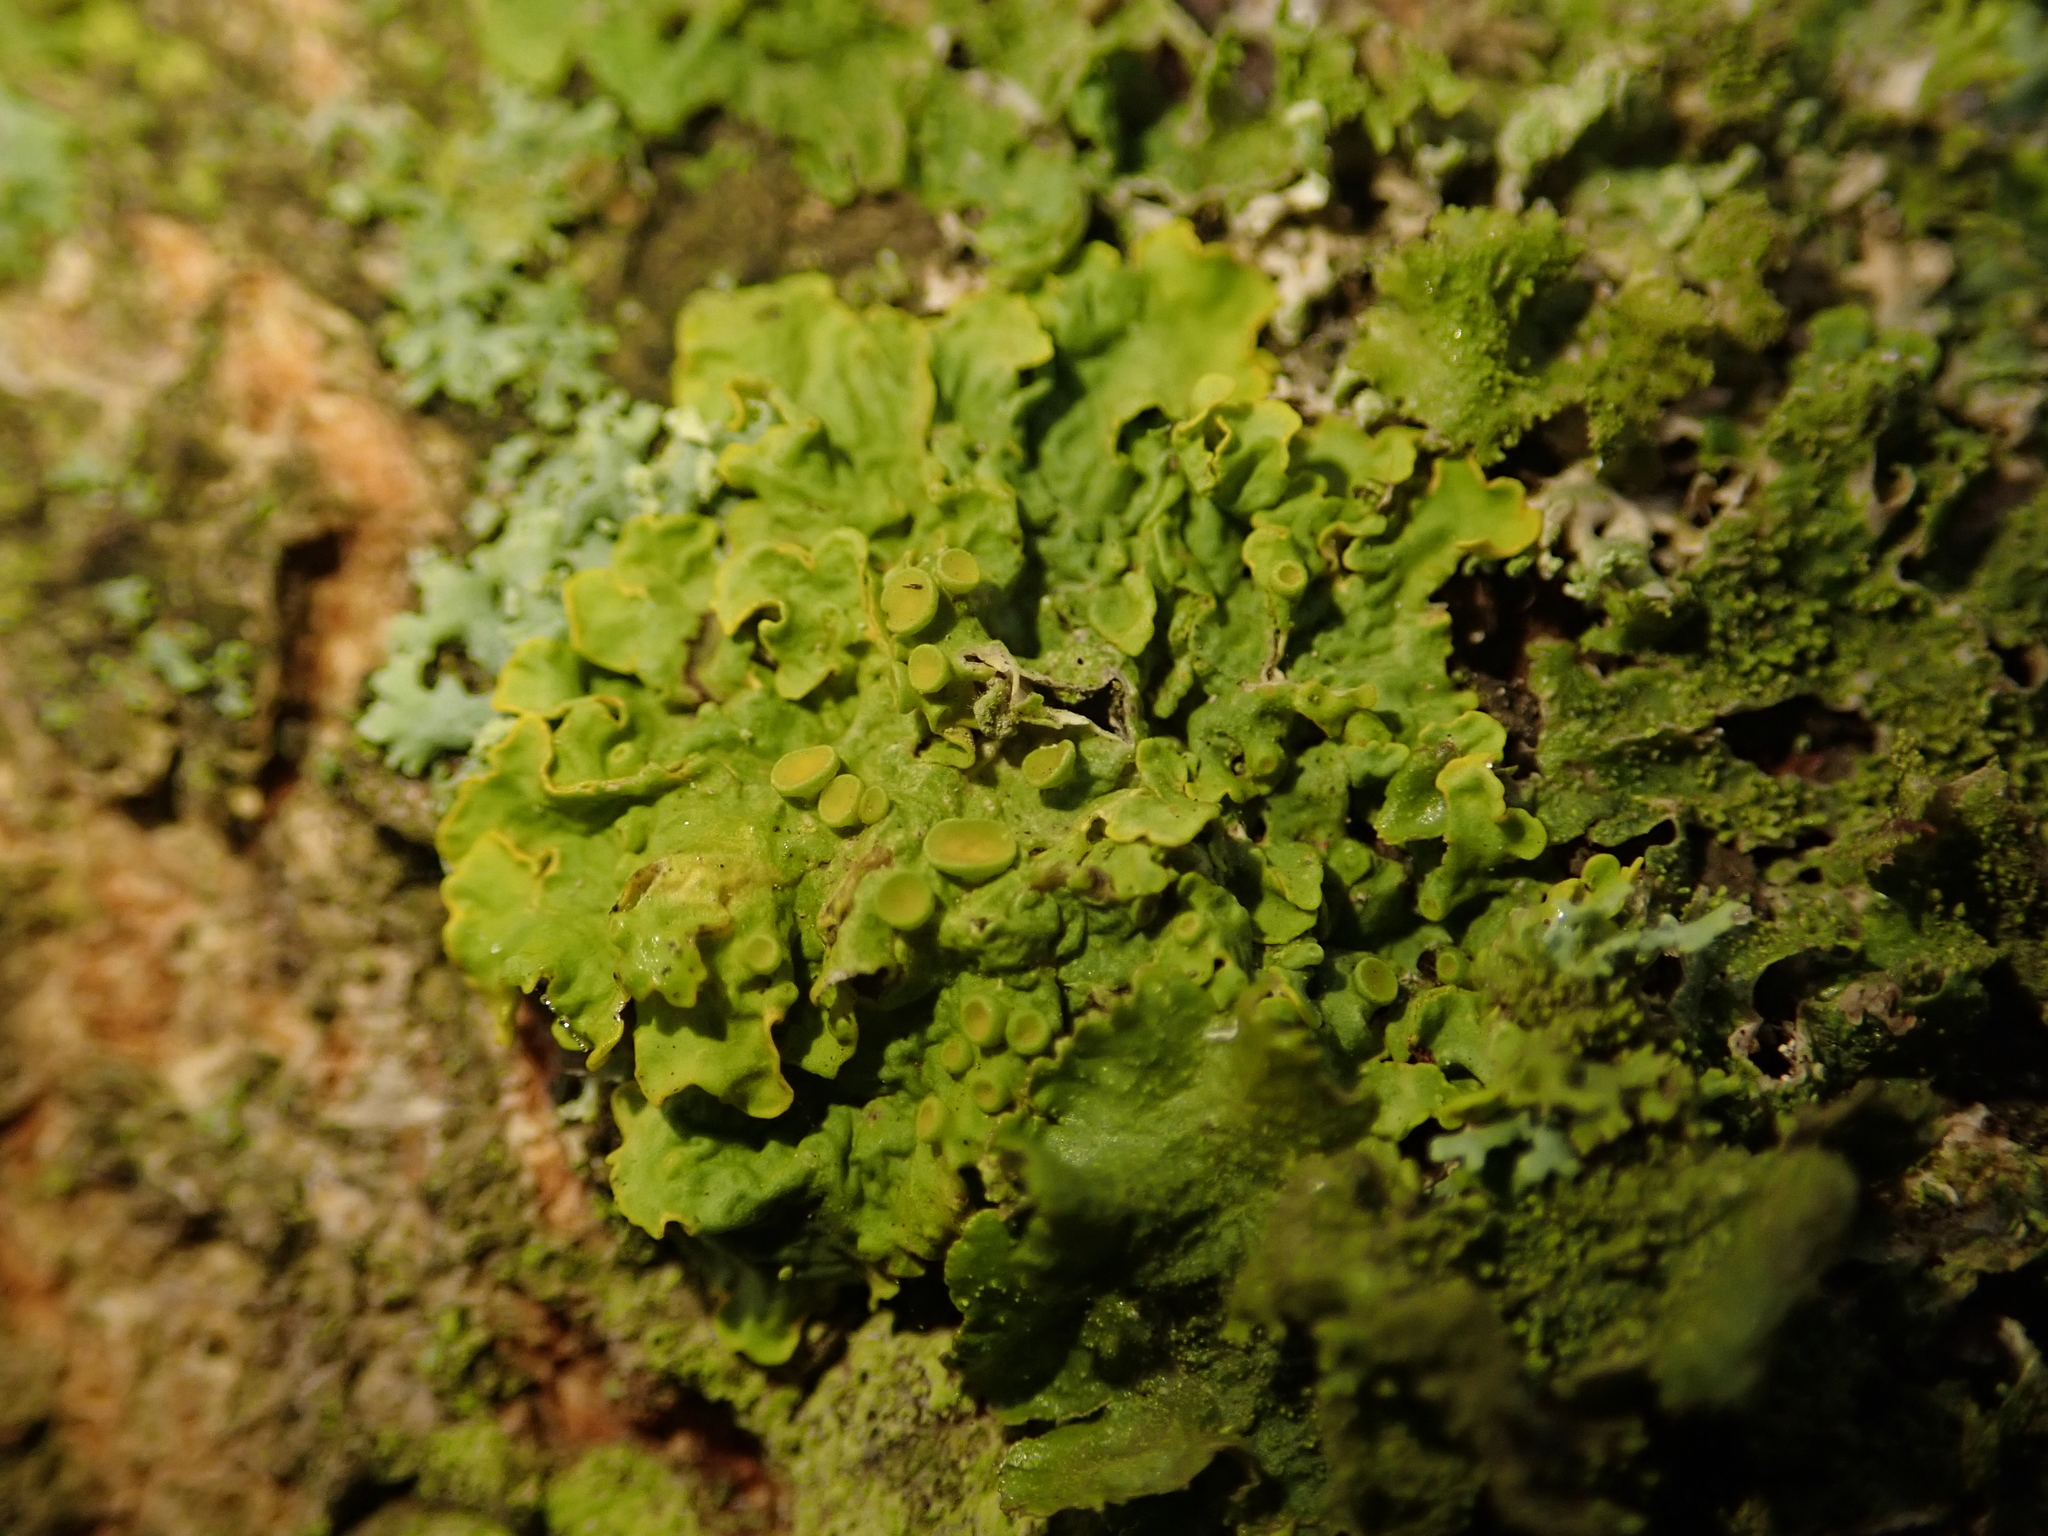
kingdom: Fungi
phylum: Ascomycota
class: Lecanoromycetes
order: Teloschistales
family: Teloschistaceae
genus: Xanthoria
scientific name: Xanthoria parietina
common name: Common orange lichen
